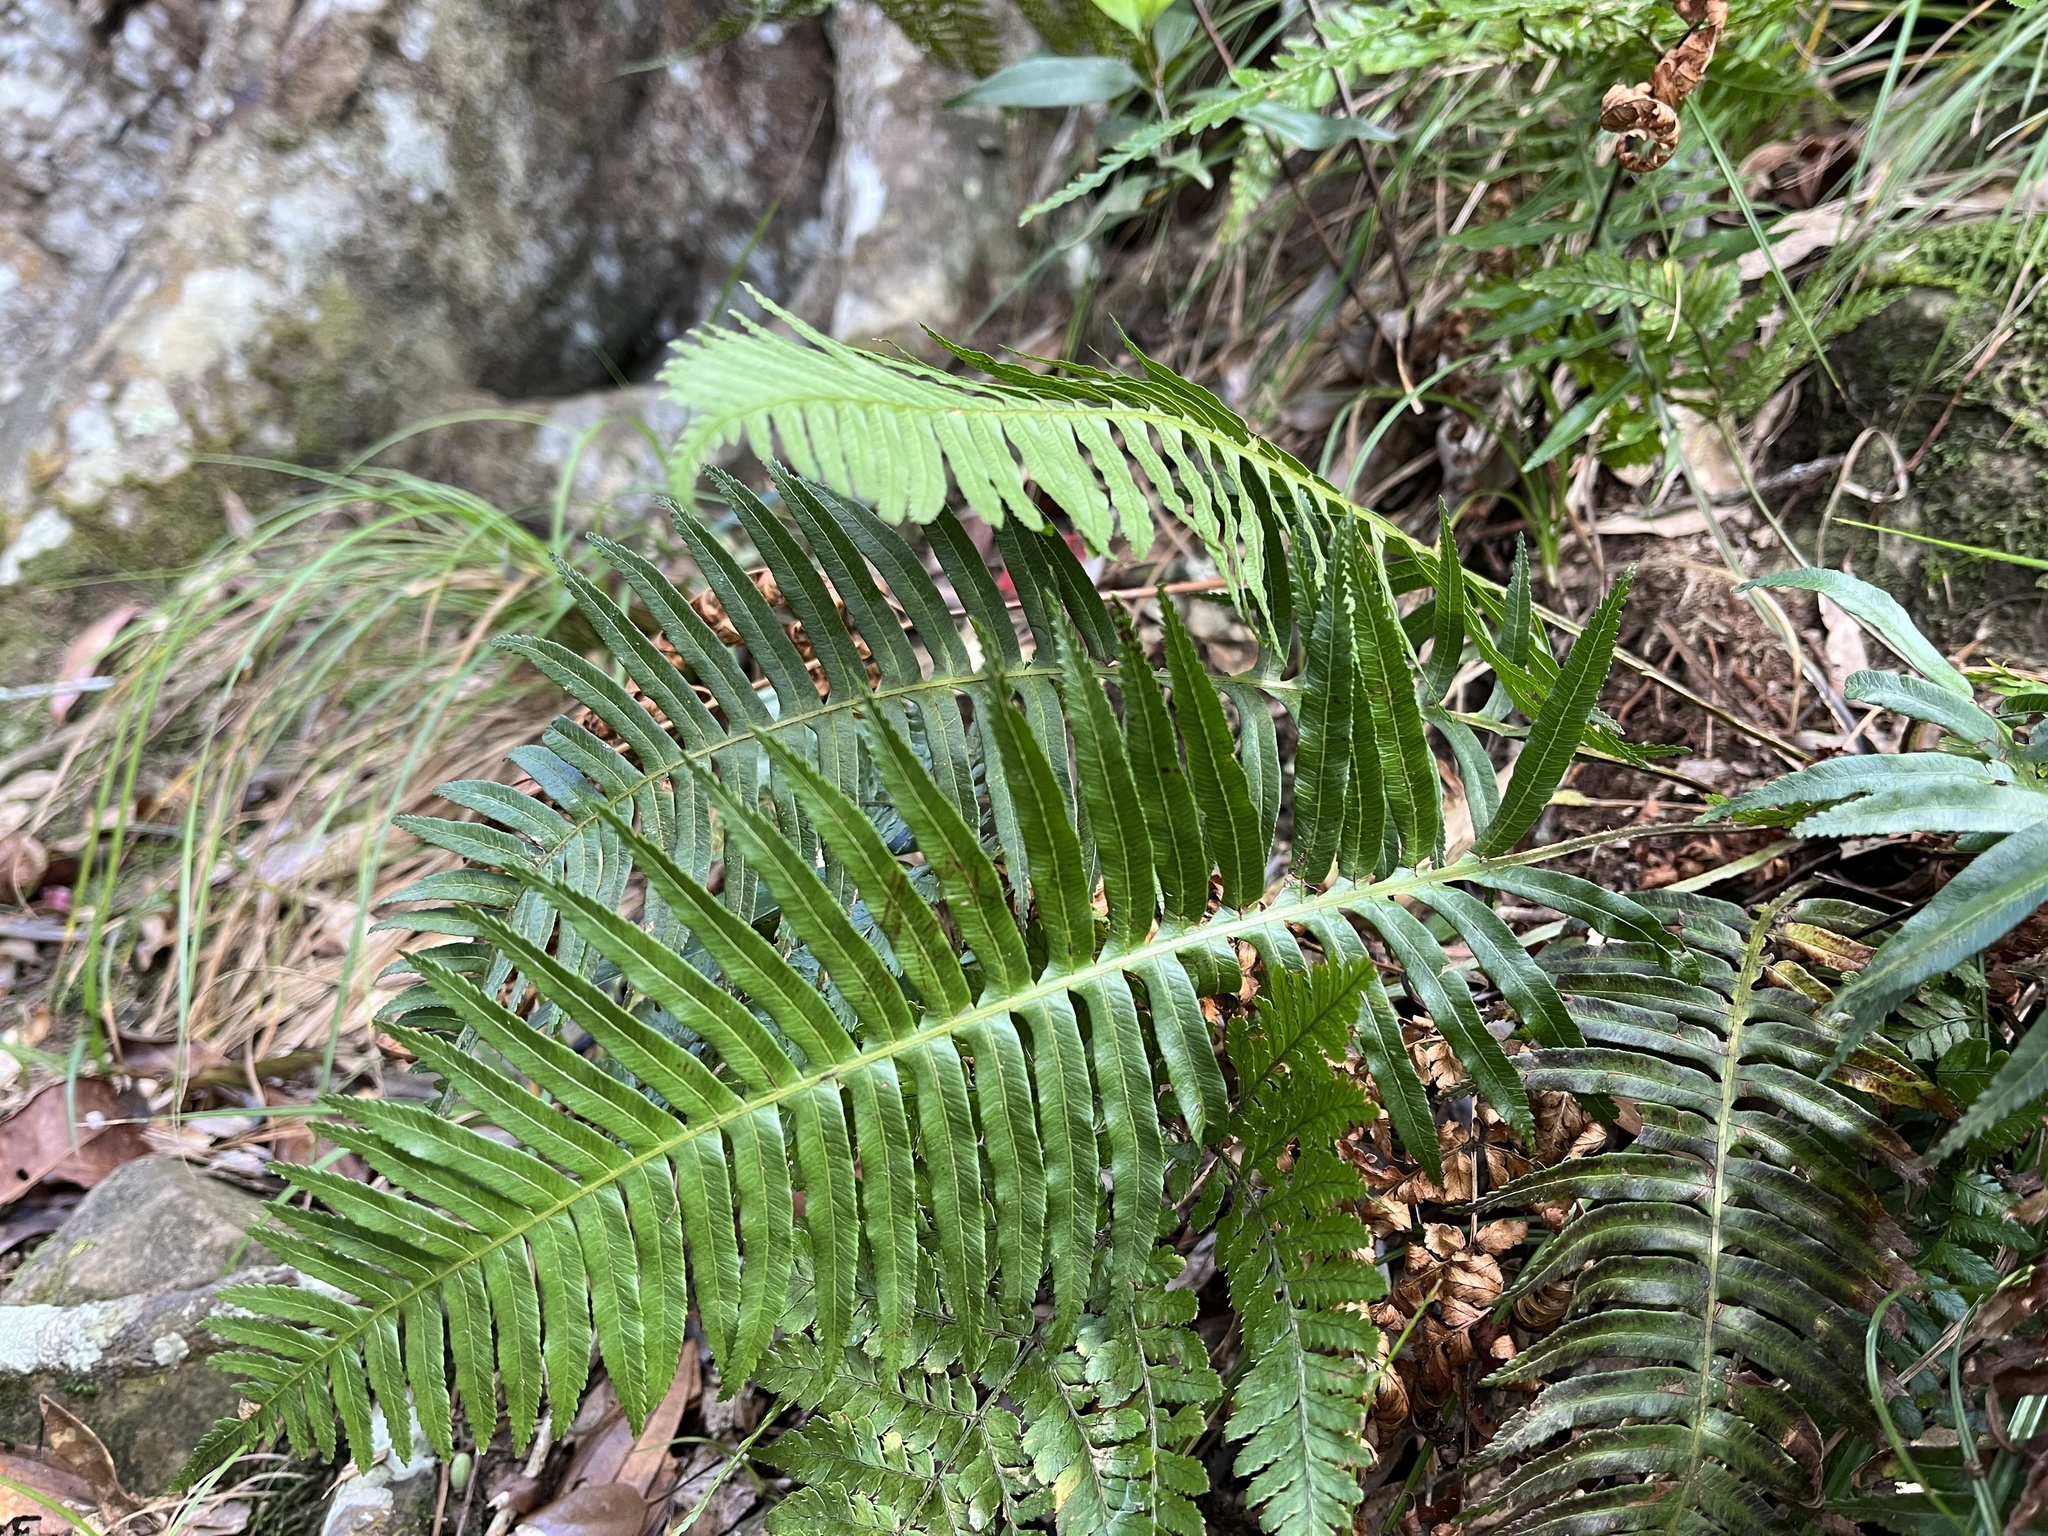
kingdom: Plantae
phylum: Tracheophyta
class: Polypodiopsida
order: Cyatheales
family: Plagiogyriaceae
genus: Plagiogyria
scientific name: Plagiogyria falcata
